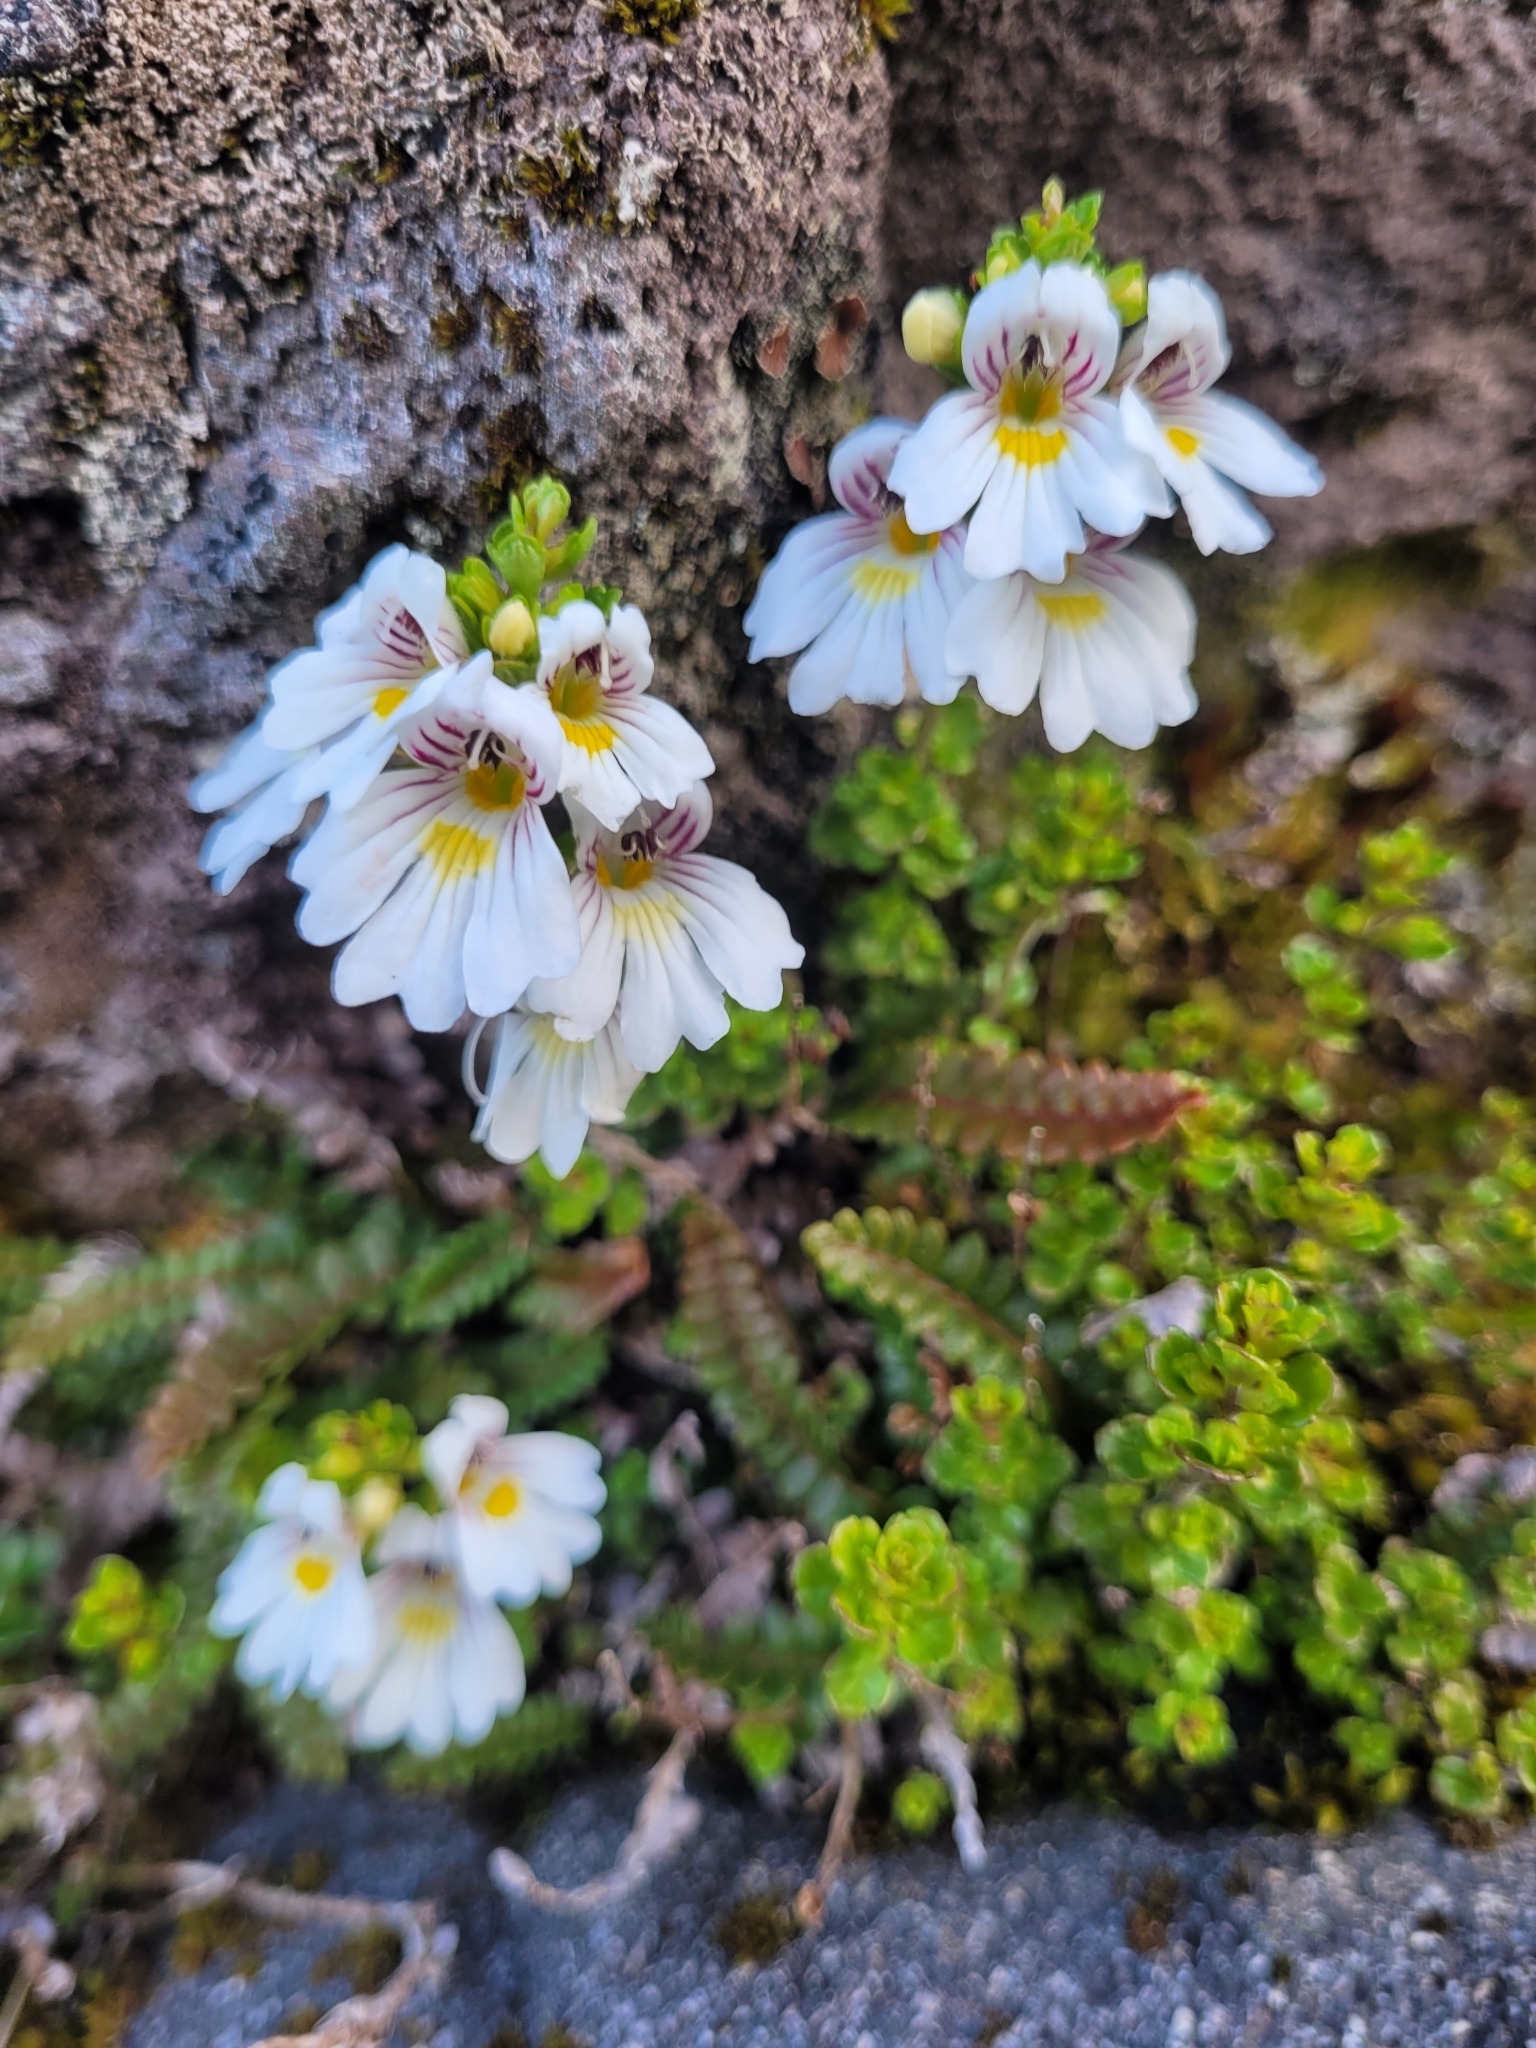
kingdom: Plantae
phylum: Tracheophyta
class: Magnoliopsida
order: Lamiales
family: Orobanchaceae
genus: Euphrasia
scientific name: Euphrasia cuneata
